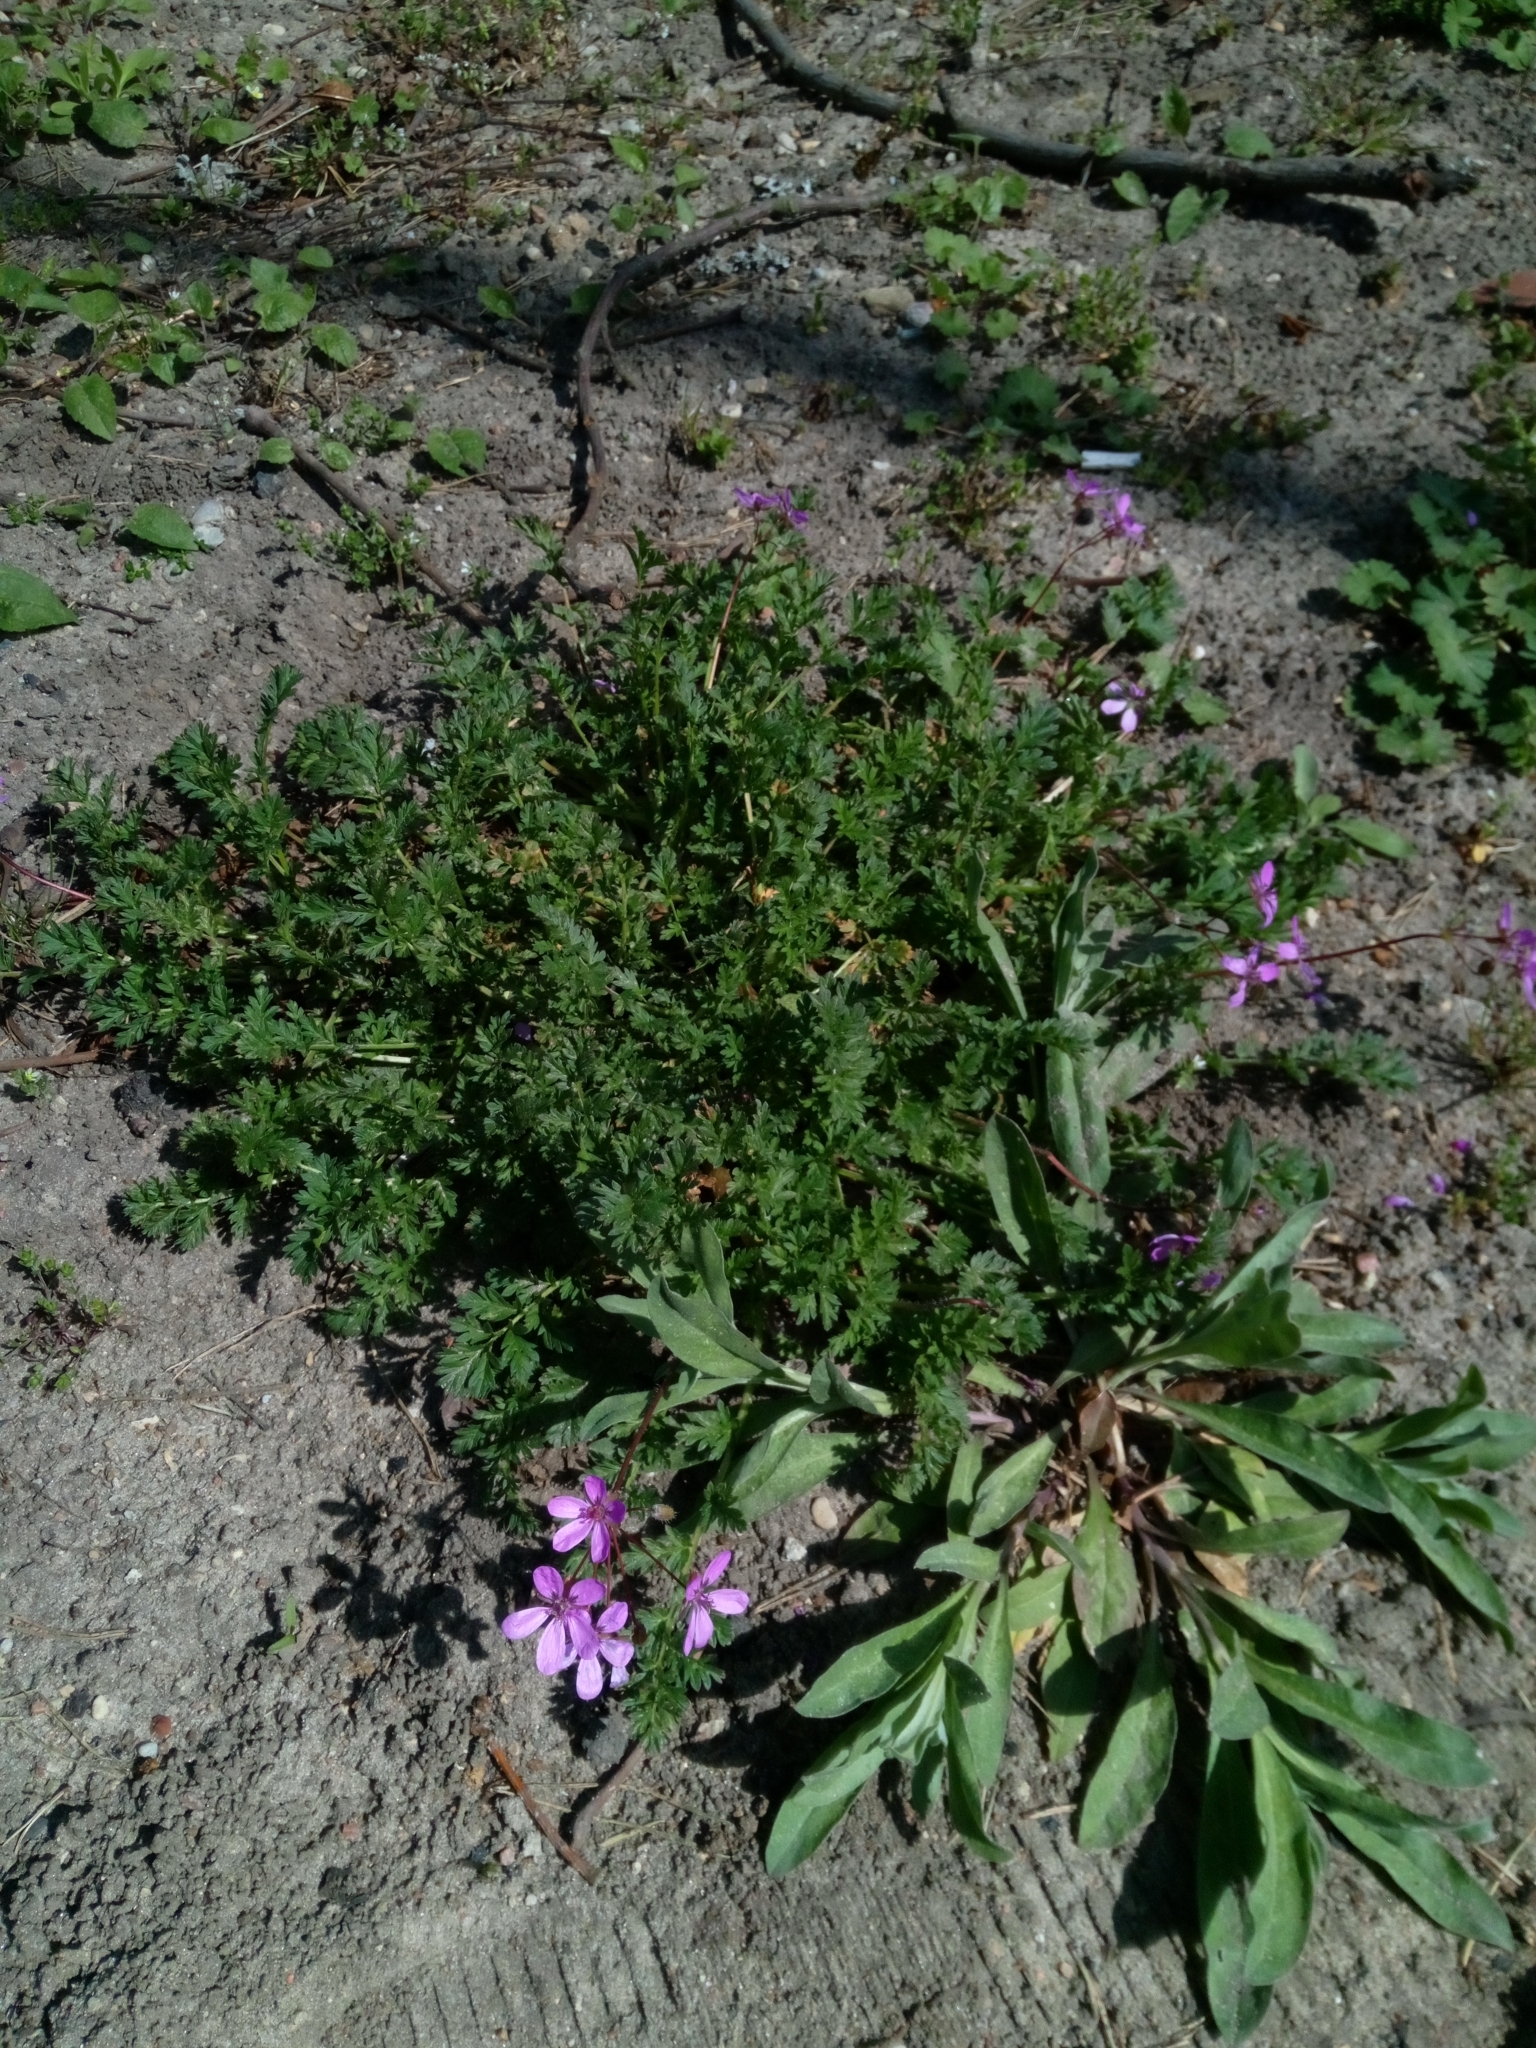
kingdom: Plantae
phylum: Tracheophyta
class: Magnoliopsida
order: Geraniales
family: Geraniaceae
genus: Erodium
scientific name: Erodium cicutarium
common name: Common stork's-bill
